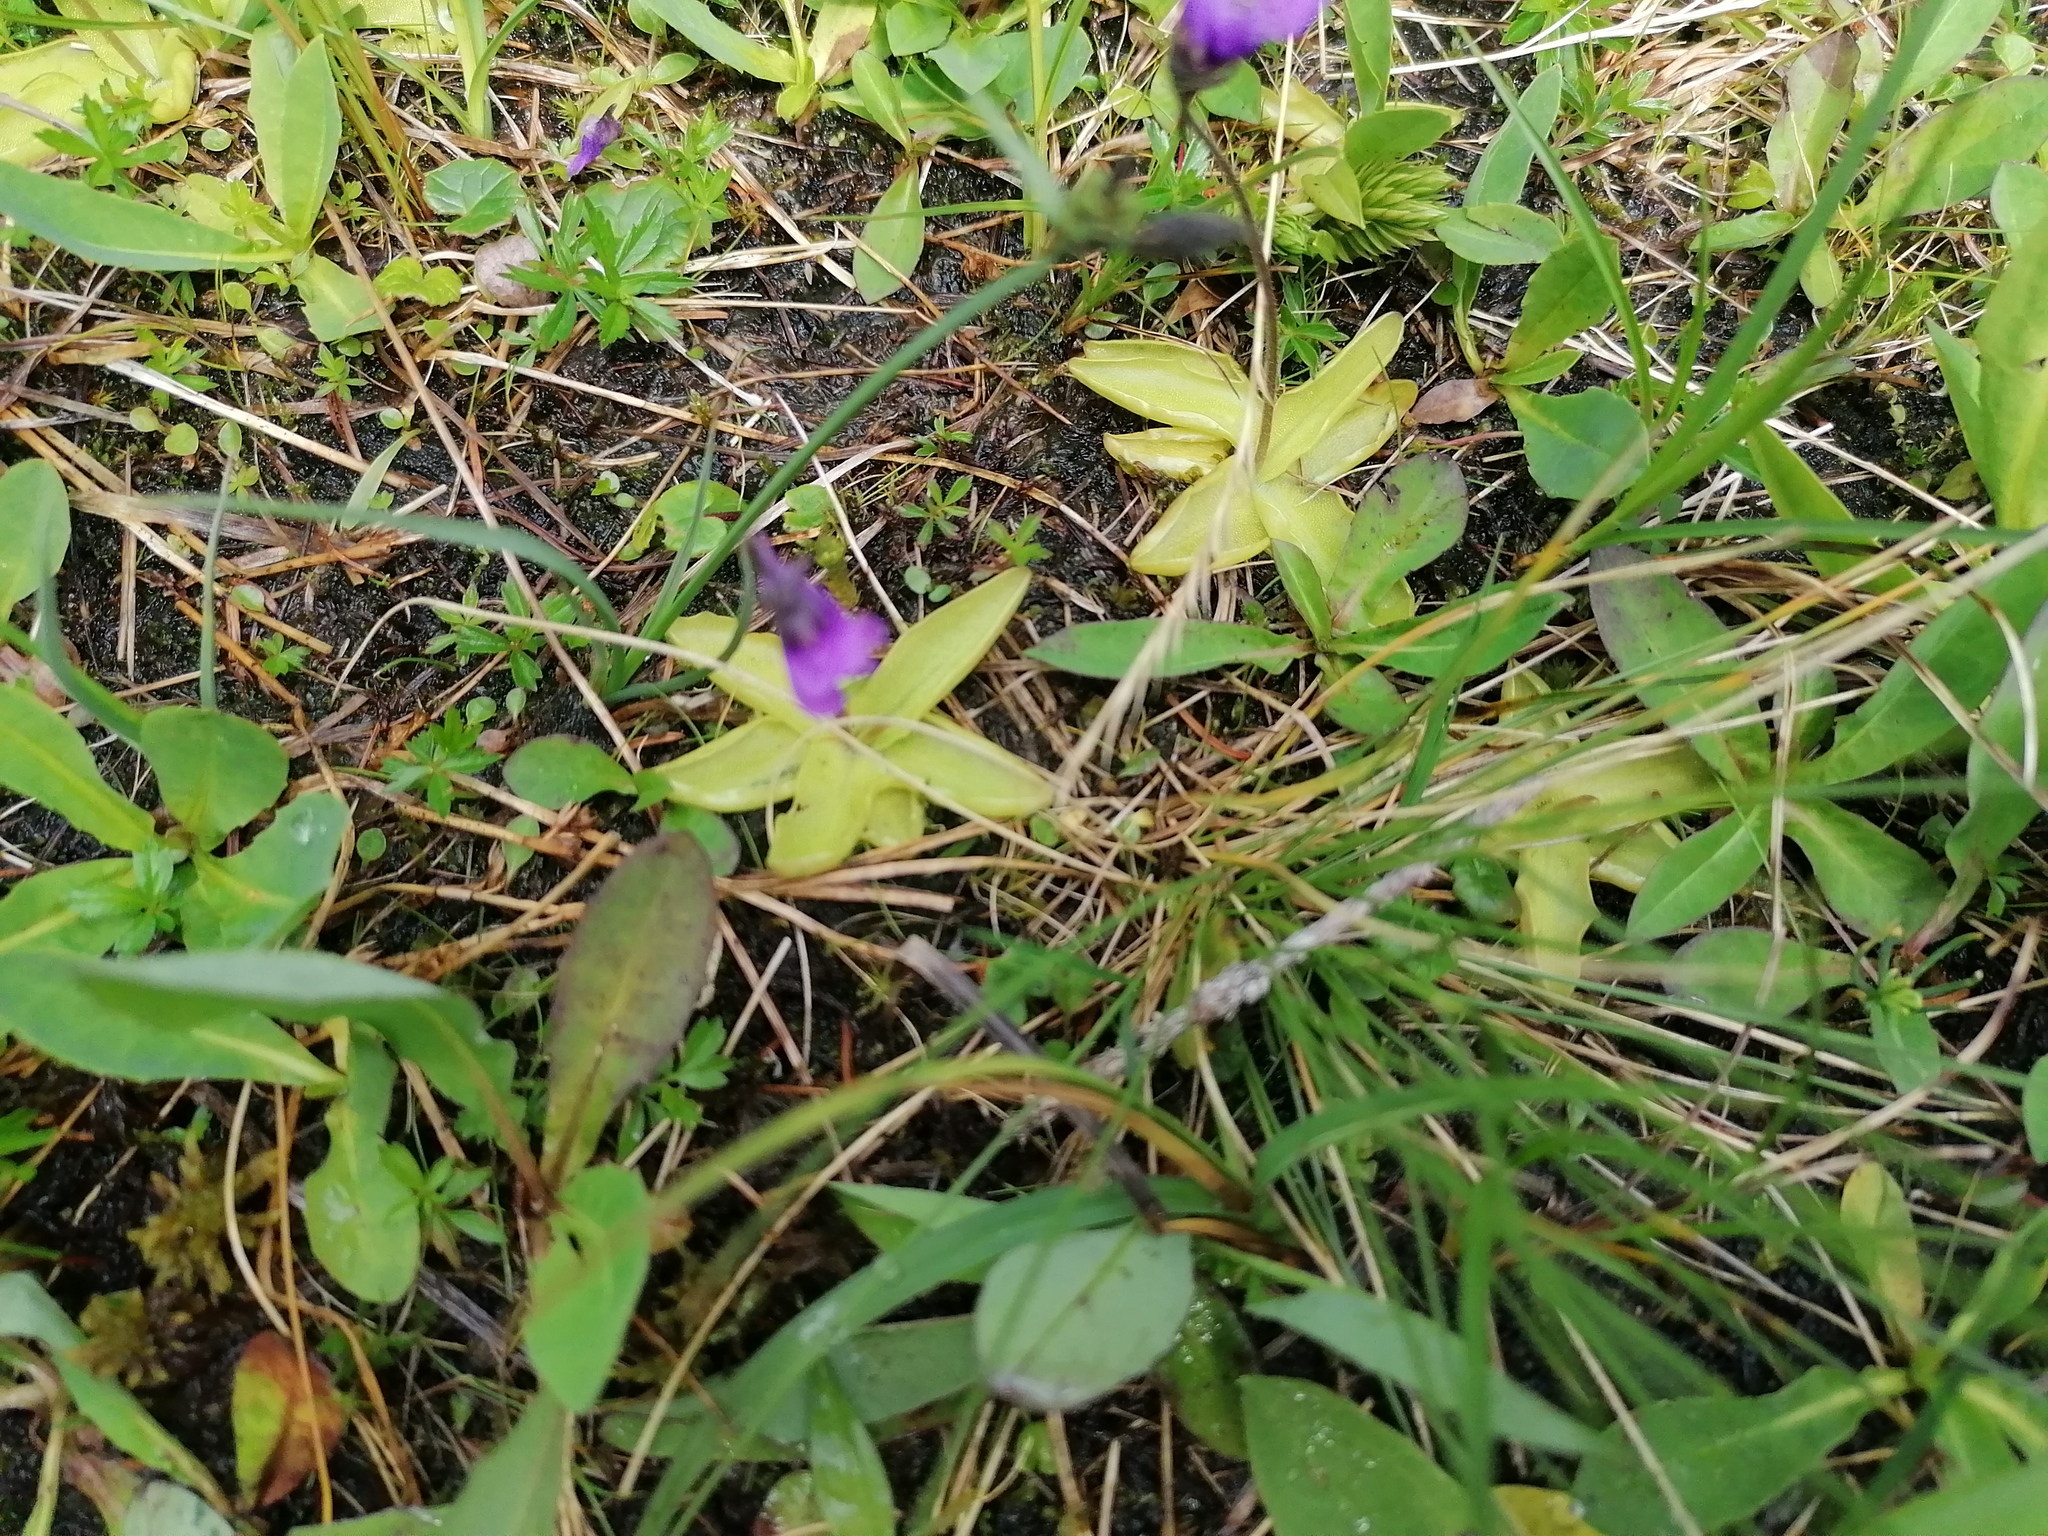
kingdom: Plantae
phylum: Tracheophyta
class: Magnoliopsida
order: Lamiales
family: Lentibulariaceae
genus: Pinguicula
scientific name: Pinguicula vulgaris
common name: Common butterwort
